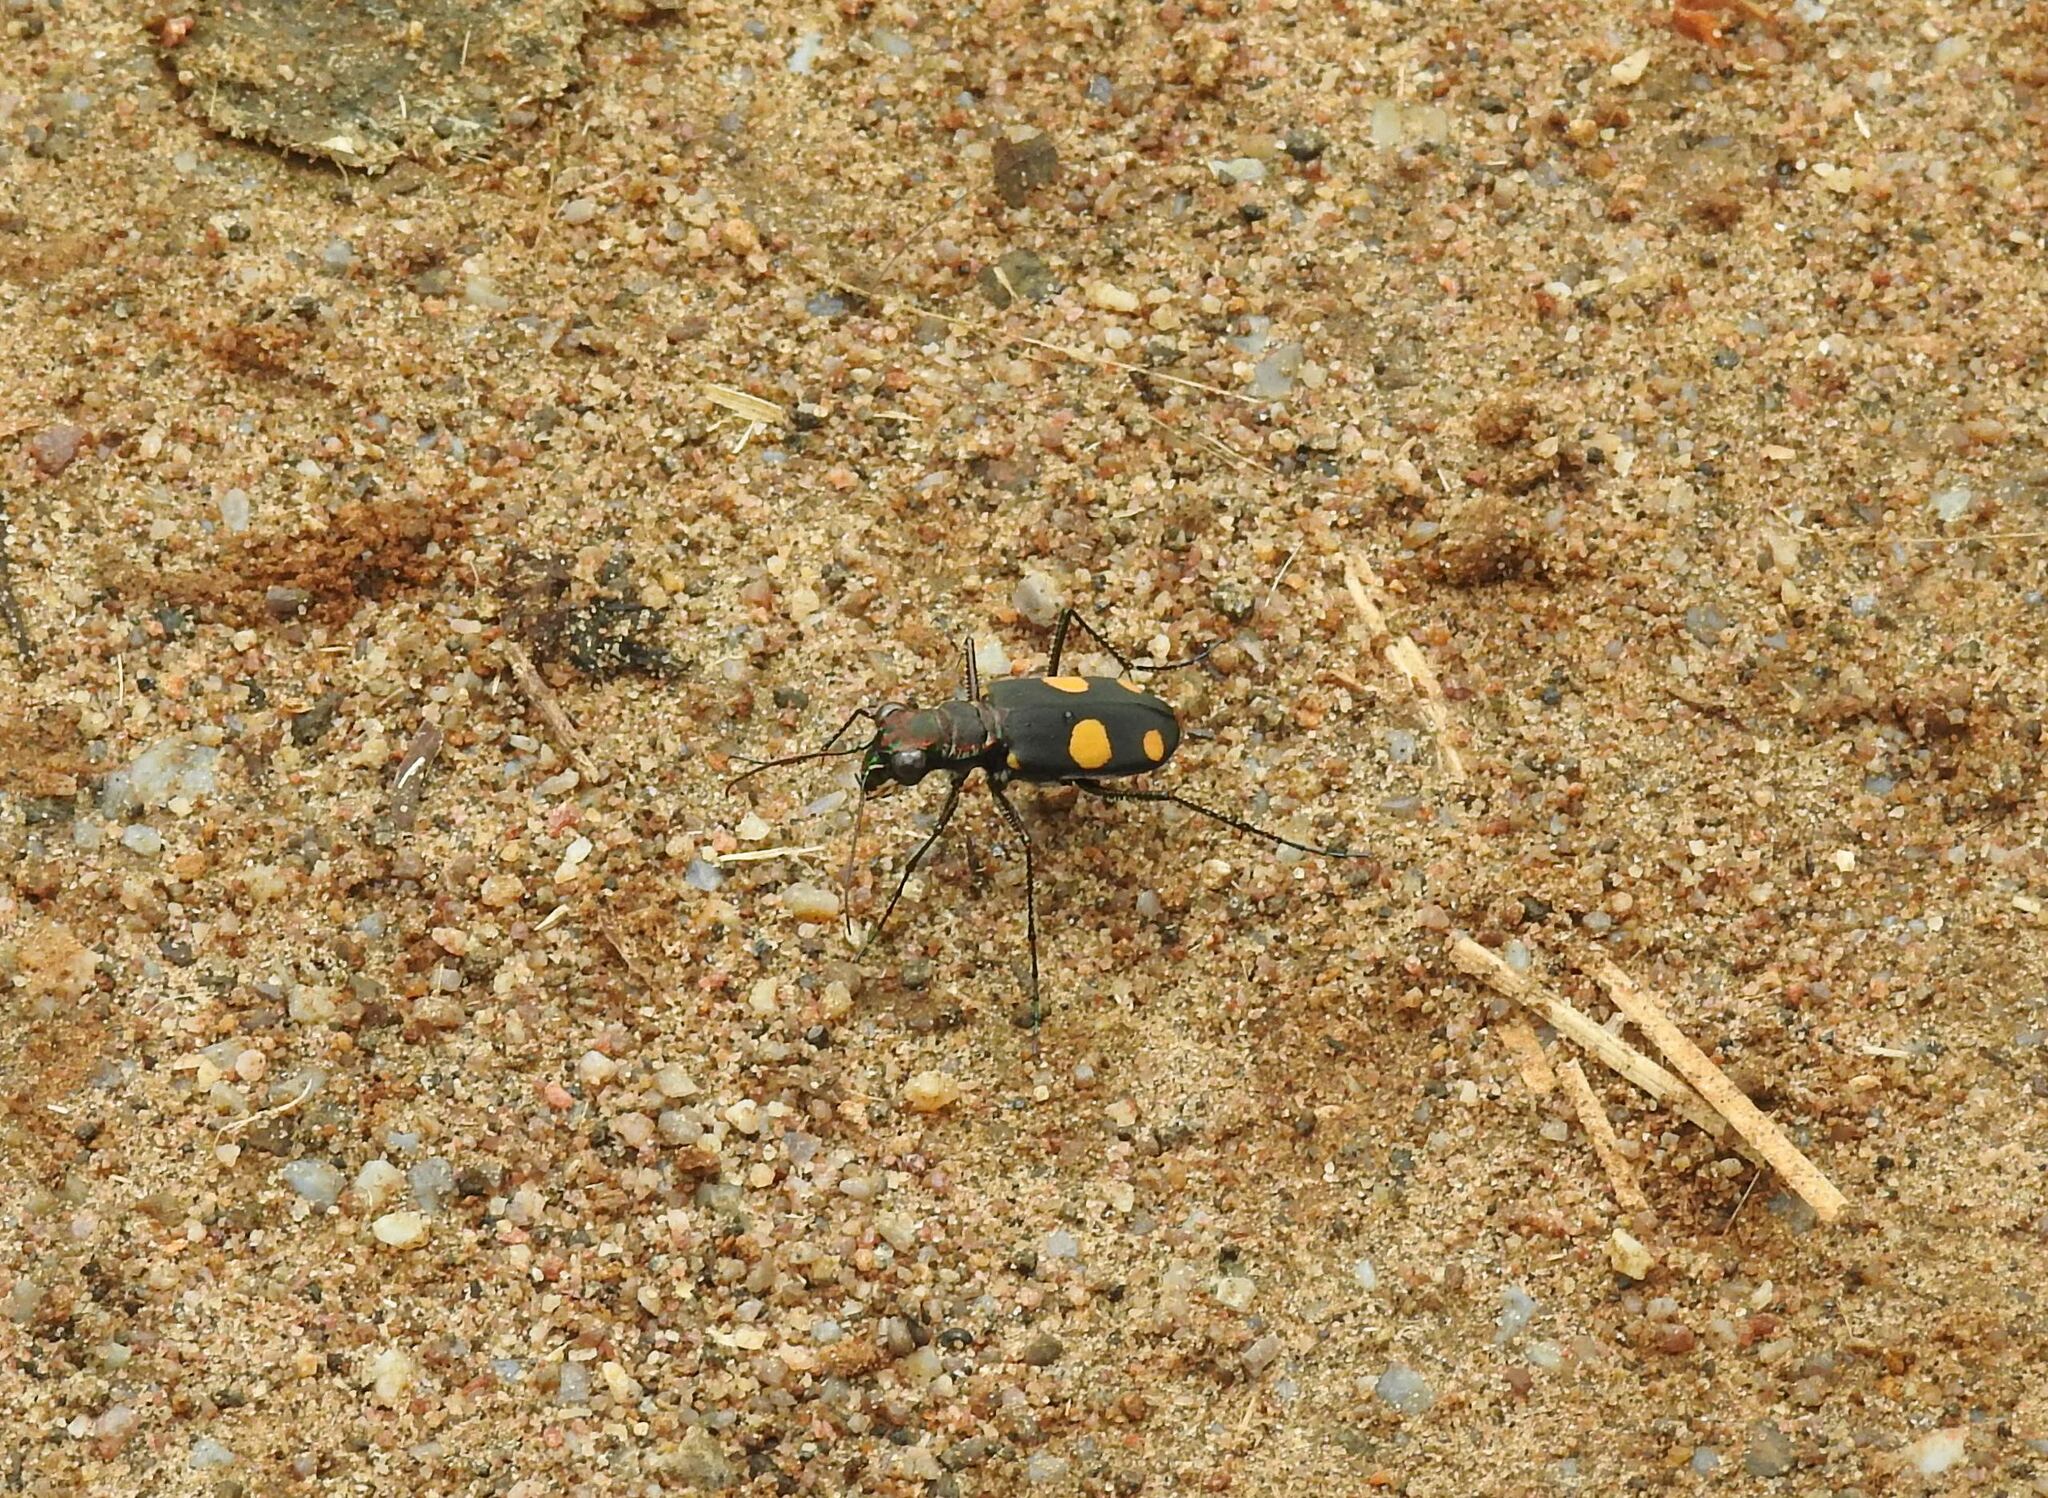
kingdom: Animalia
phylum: Arthropoda
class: Insecta
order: Coleoptera
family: Carabidae
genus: Cicindela
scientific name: Cicindela bicolor
